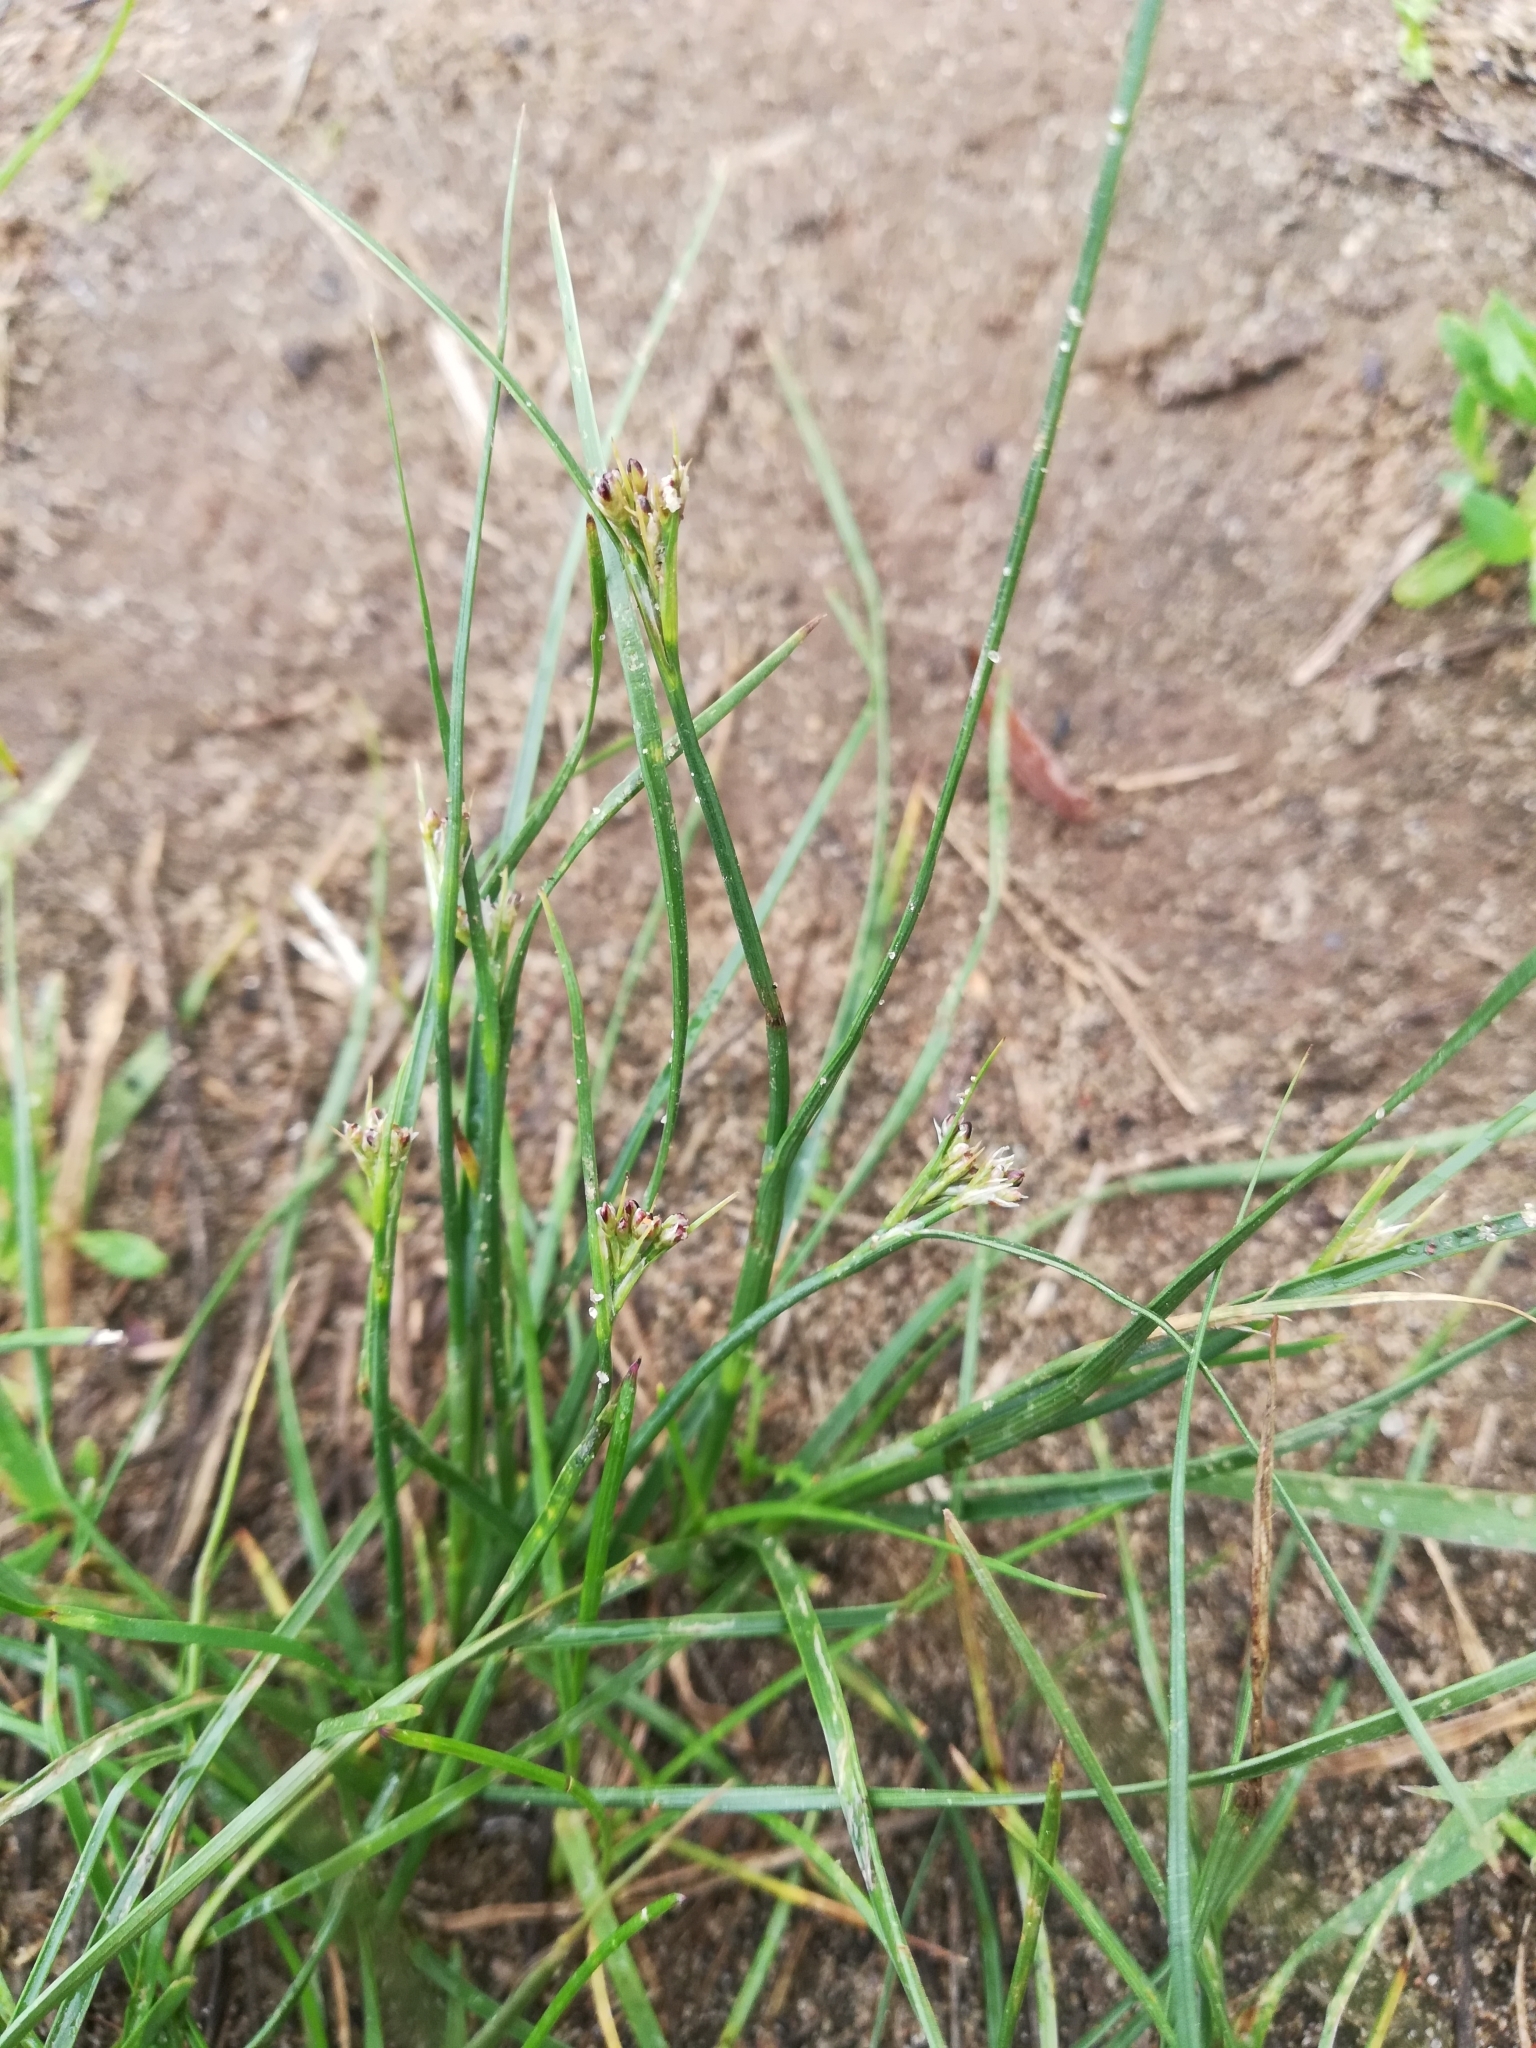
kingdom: Plantae
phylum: Tracheophyta
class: Liliopsida
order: Poales
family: Juncaceae
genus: Juncus
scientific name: Juncus compressus
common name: Round-fruited rush
